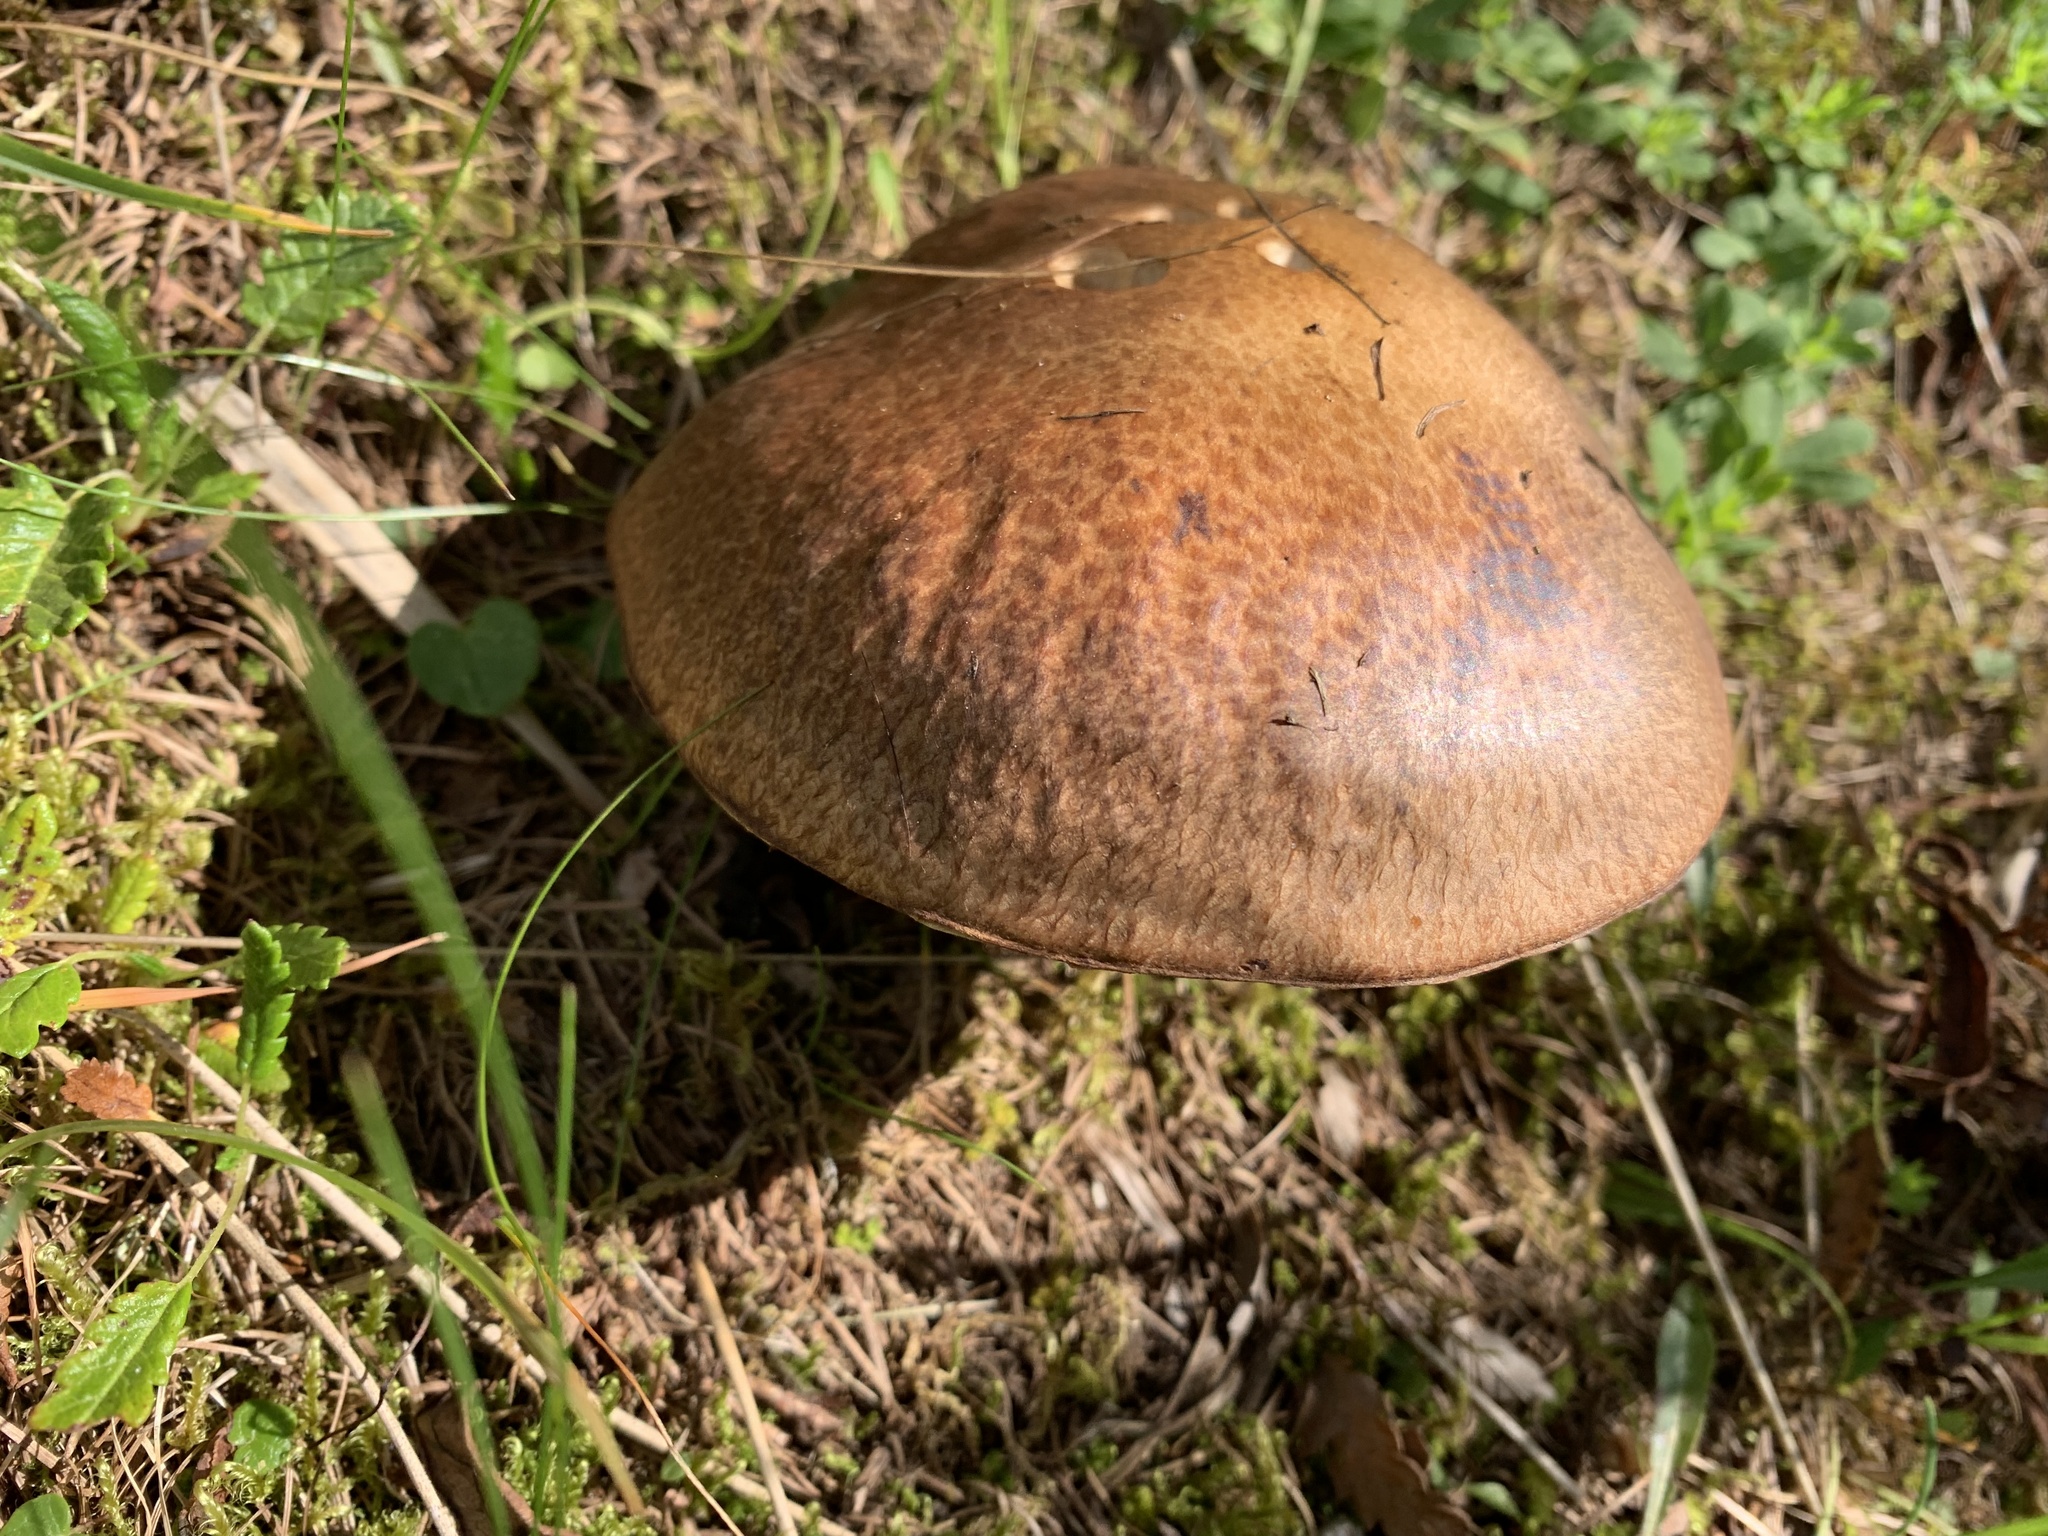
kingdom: Fungi
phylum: Basidiomycota
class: Agaricomycetes
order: Boletales
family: Suillaceae
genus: Suillus
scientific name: Suillus grevillei
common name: Larch bolete
